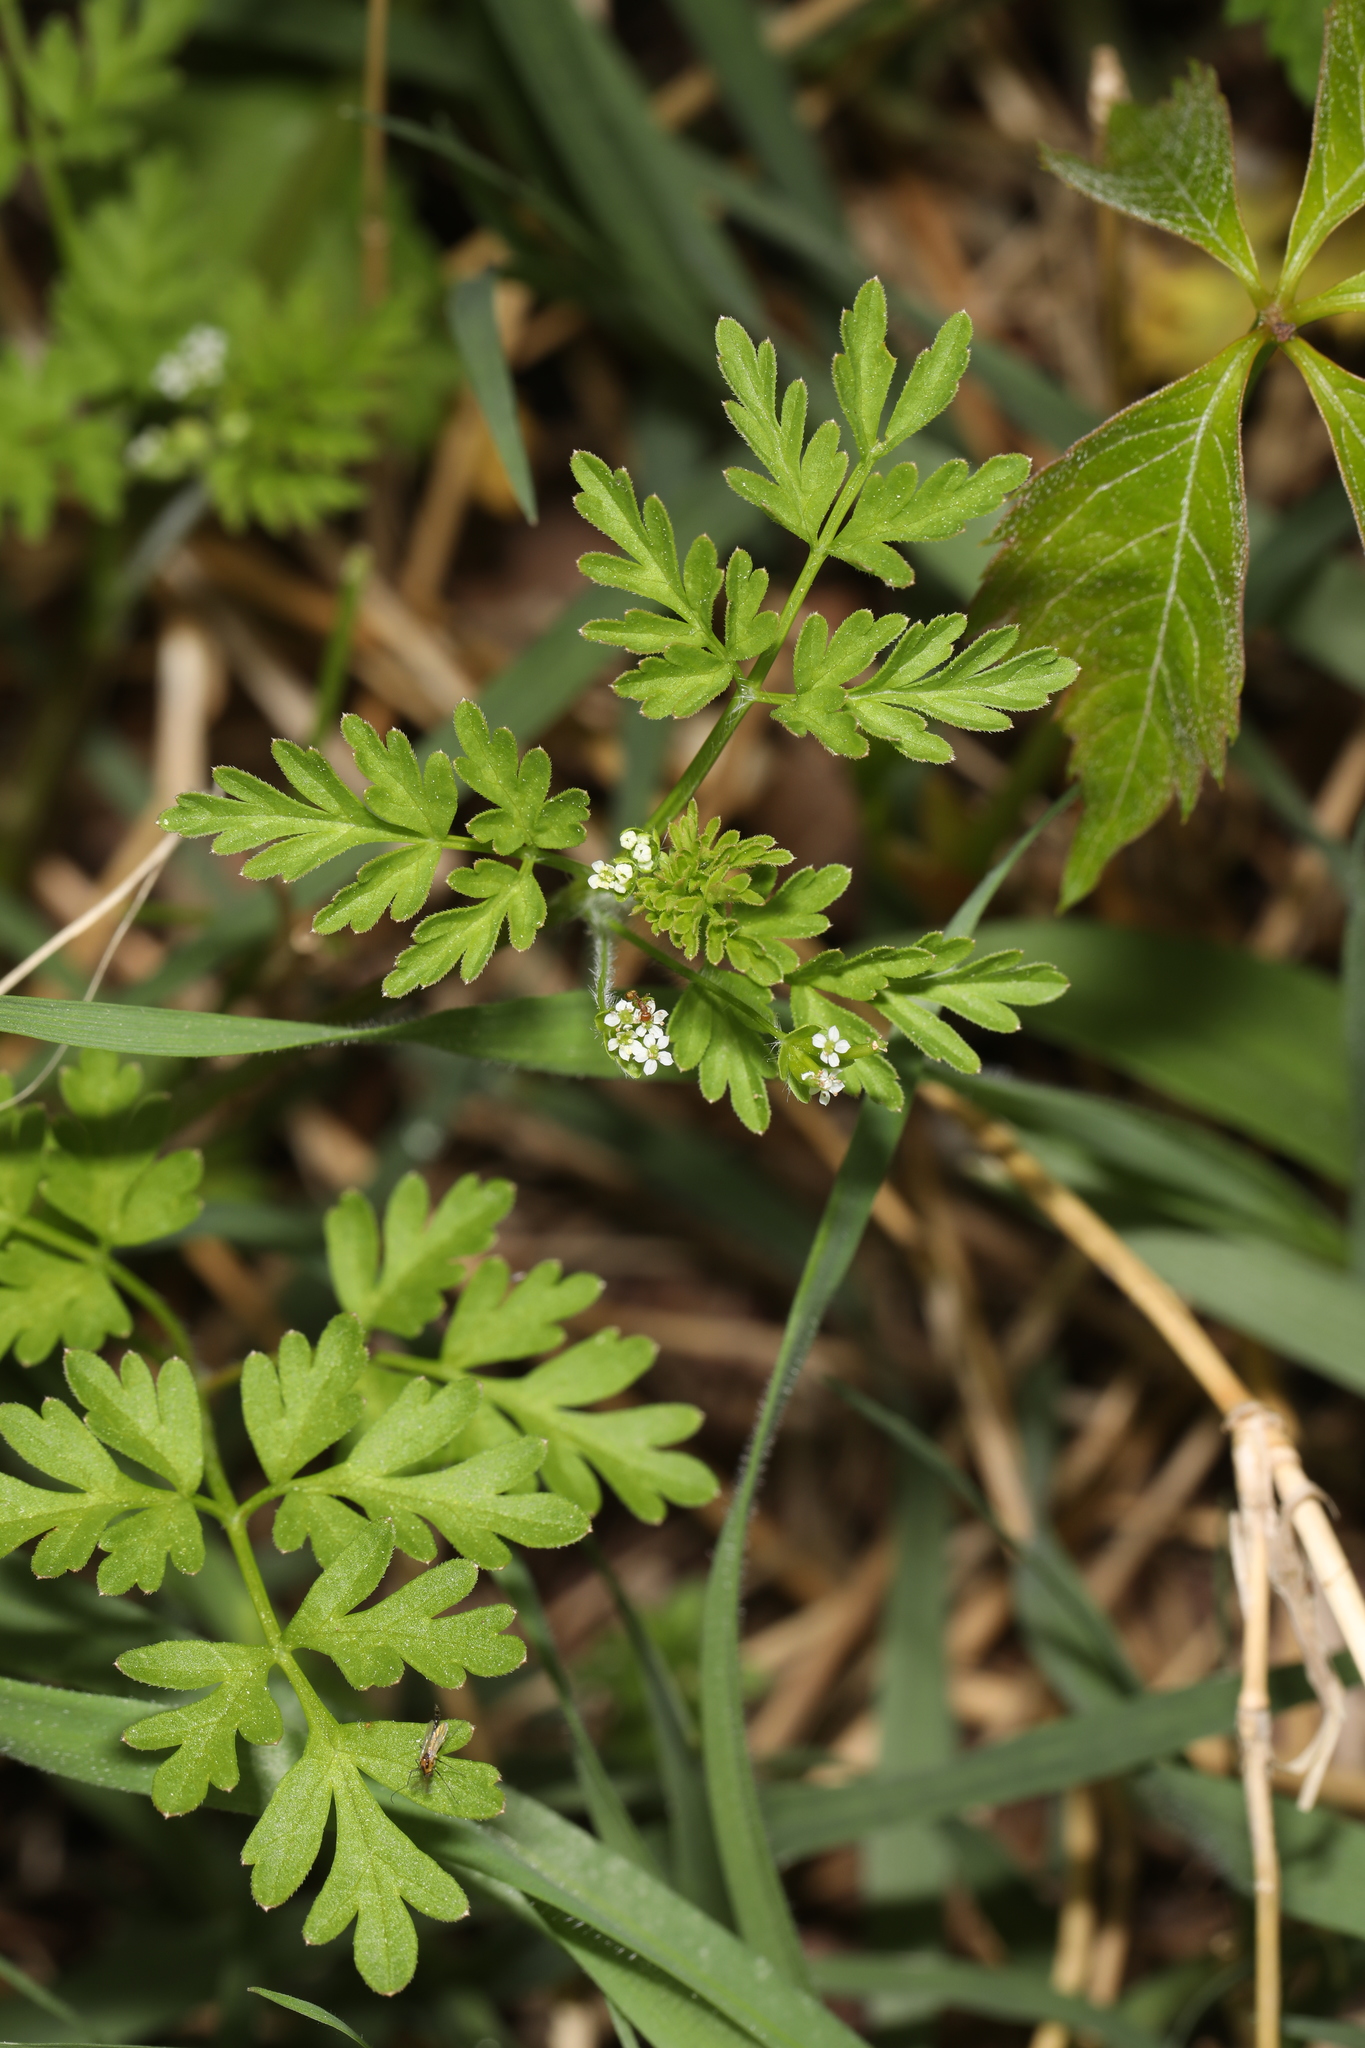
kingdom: Plantae
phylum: Tracheophyta
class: Magnoliopsida
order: Apiales
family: Apiaceae
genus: Chaerophyllum
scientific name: Chaerophyllum tainturieri
